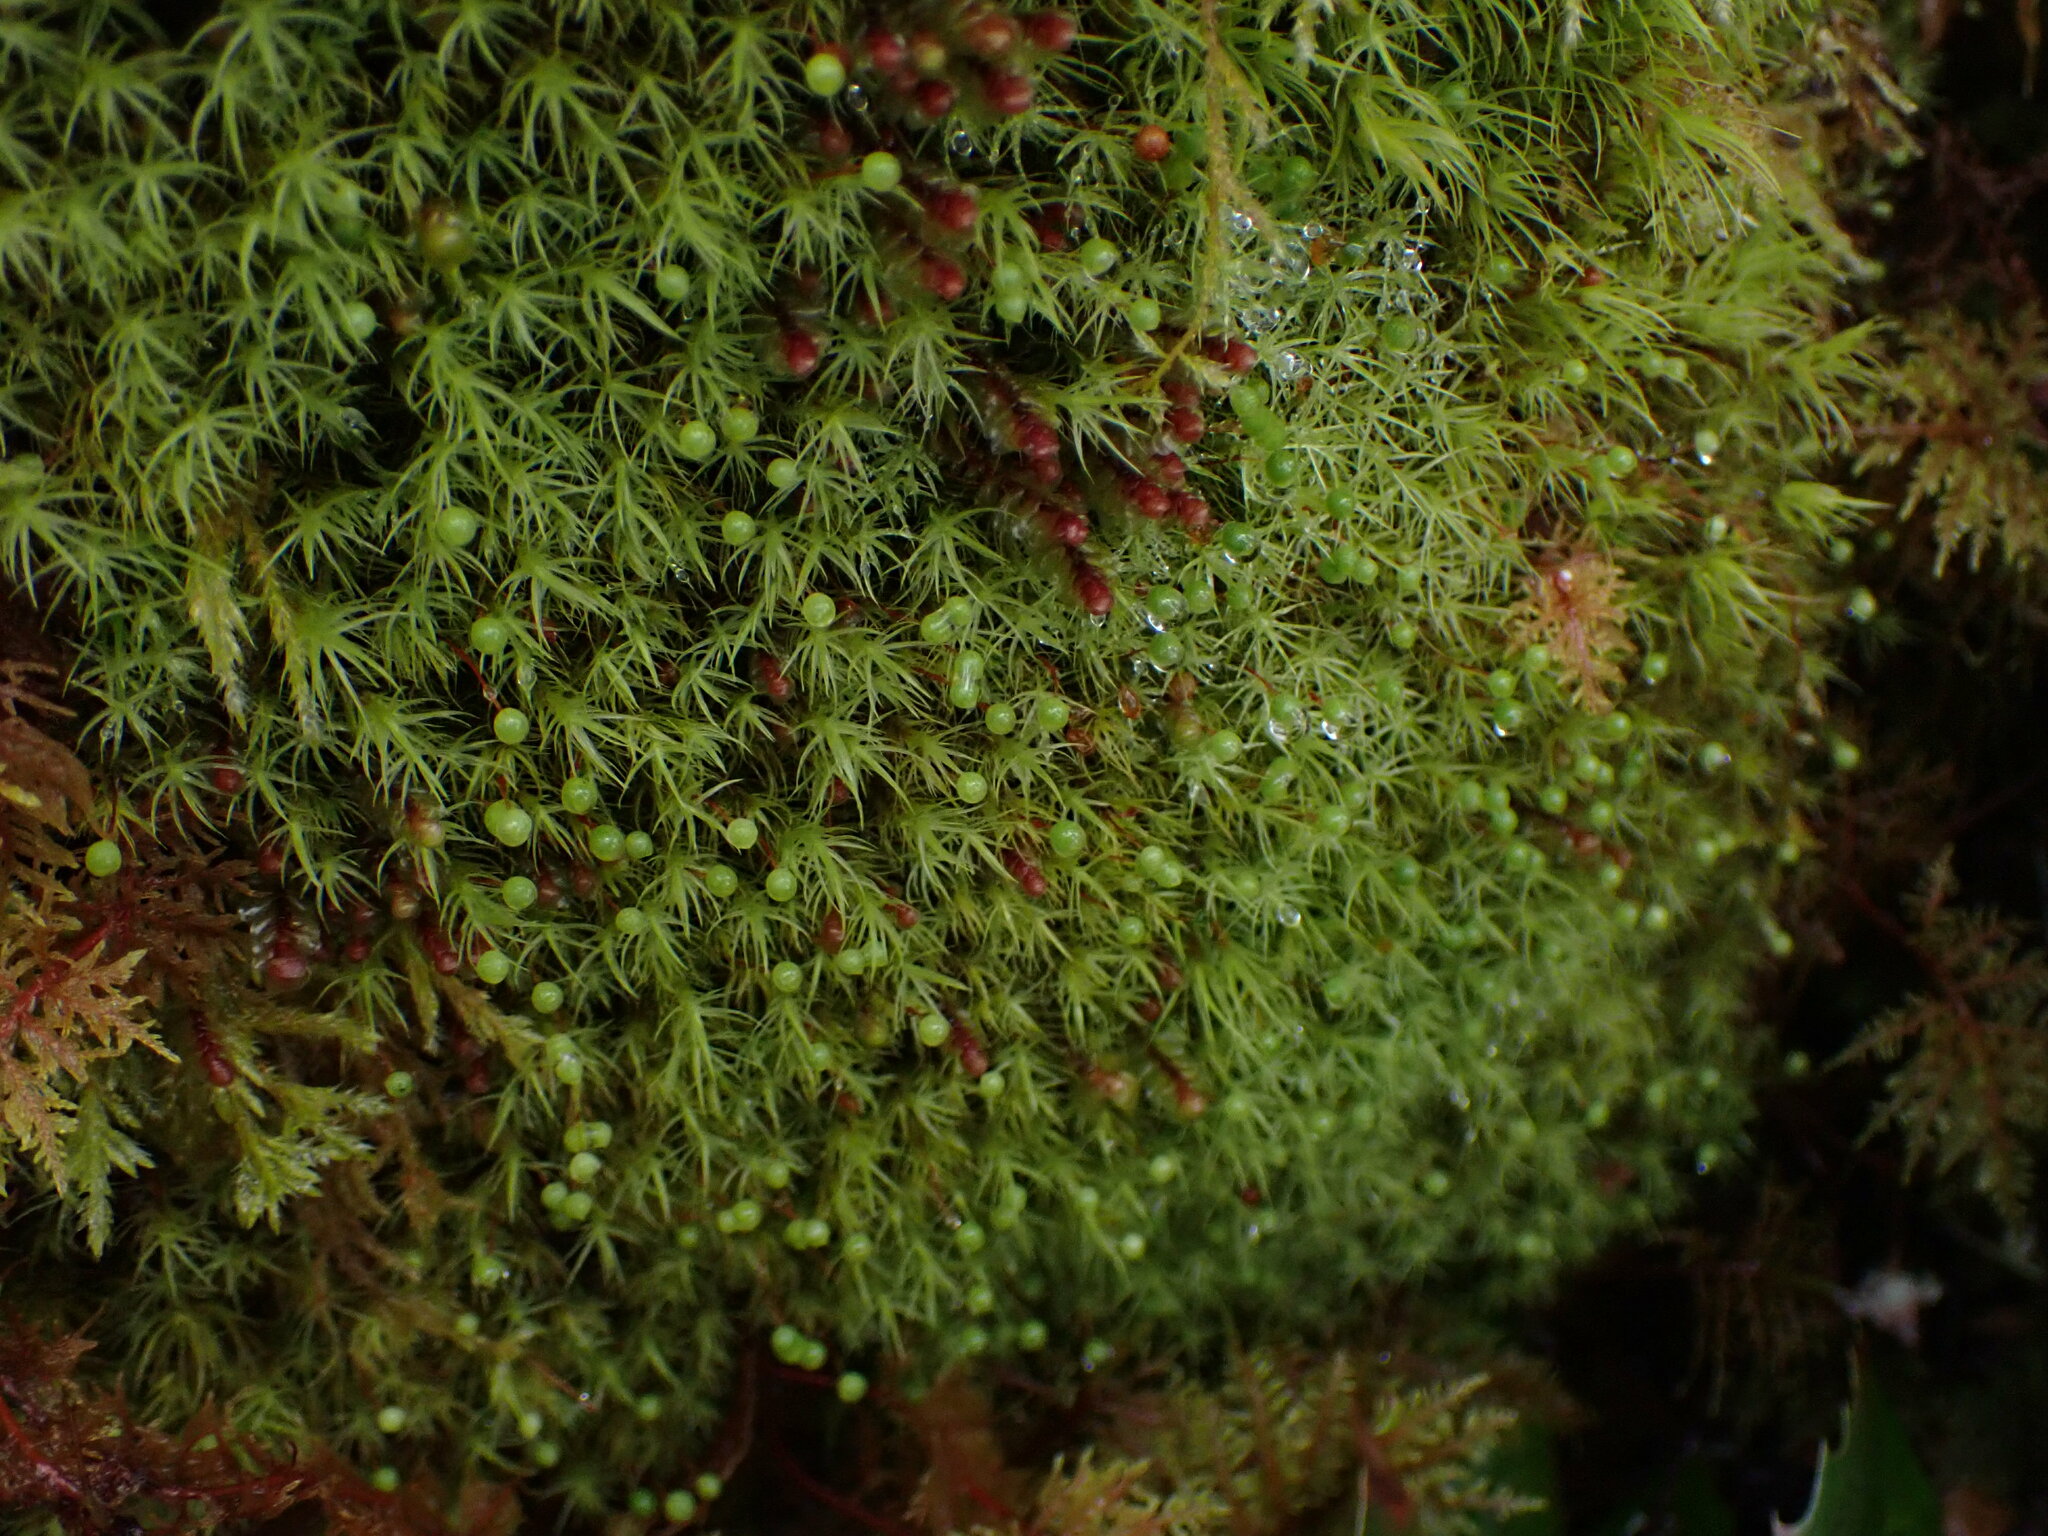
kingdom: Plantae
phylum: Bryophyta
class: Bryopsida
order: Bartramiales
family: Bartramiaceae
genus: Bartramia
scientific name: Bartramia ithyphylla
